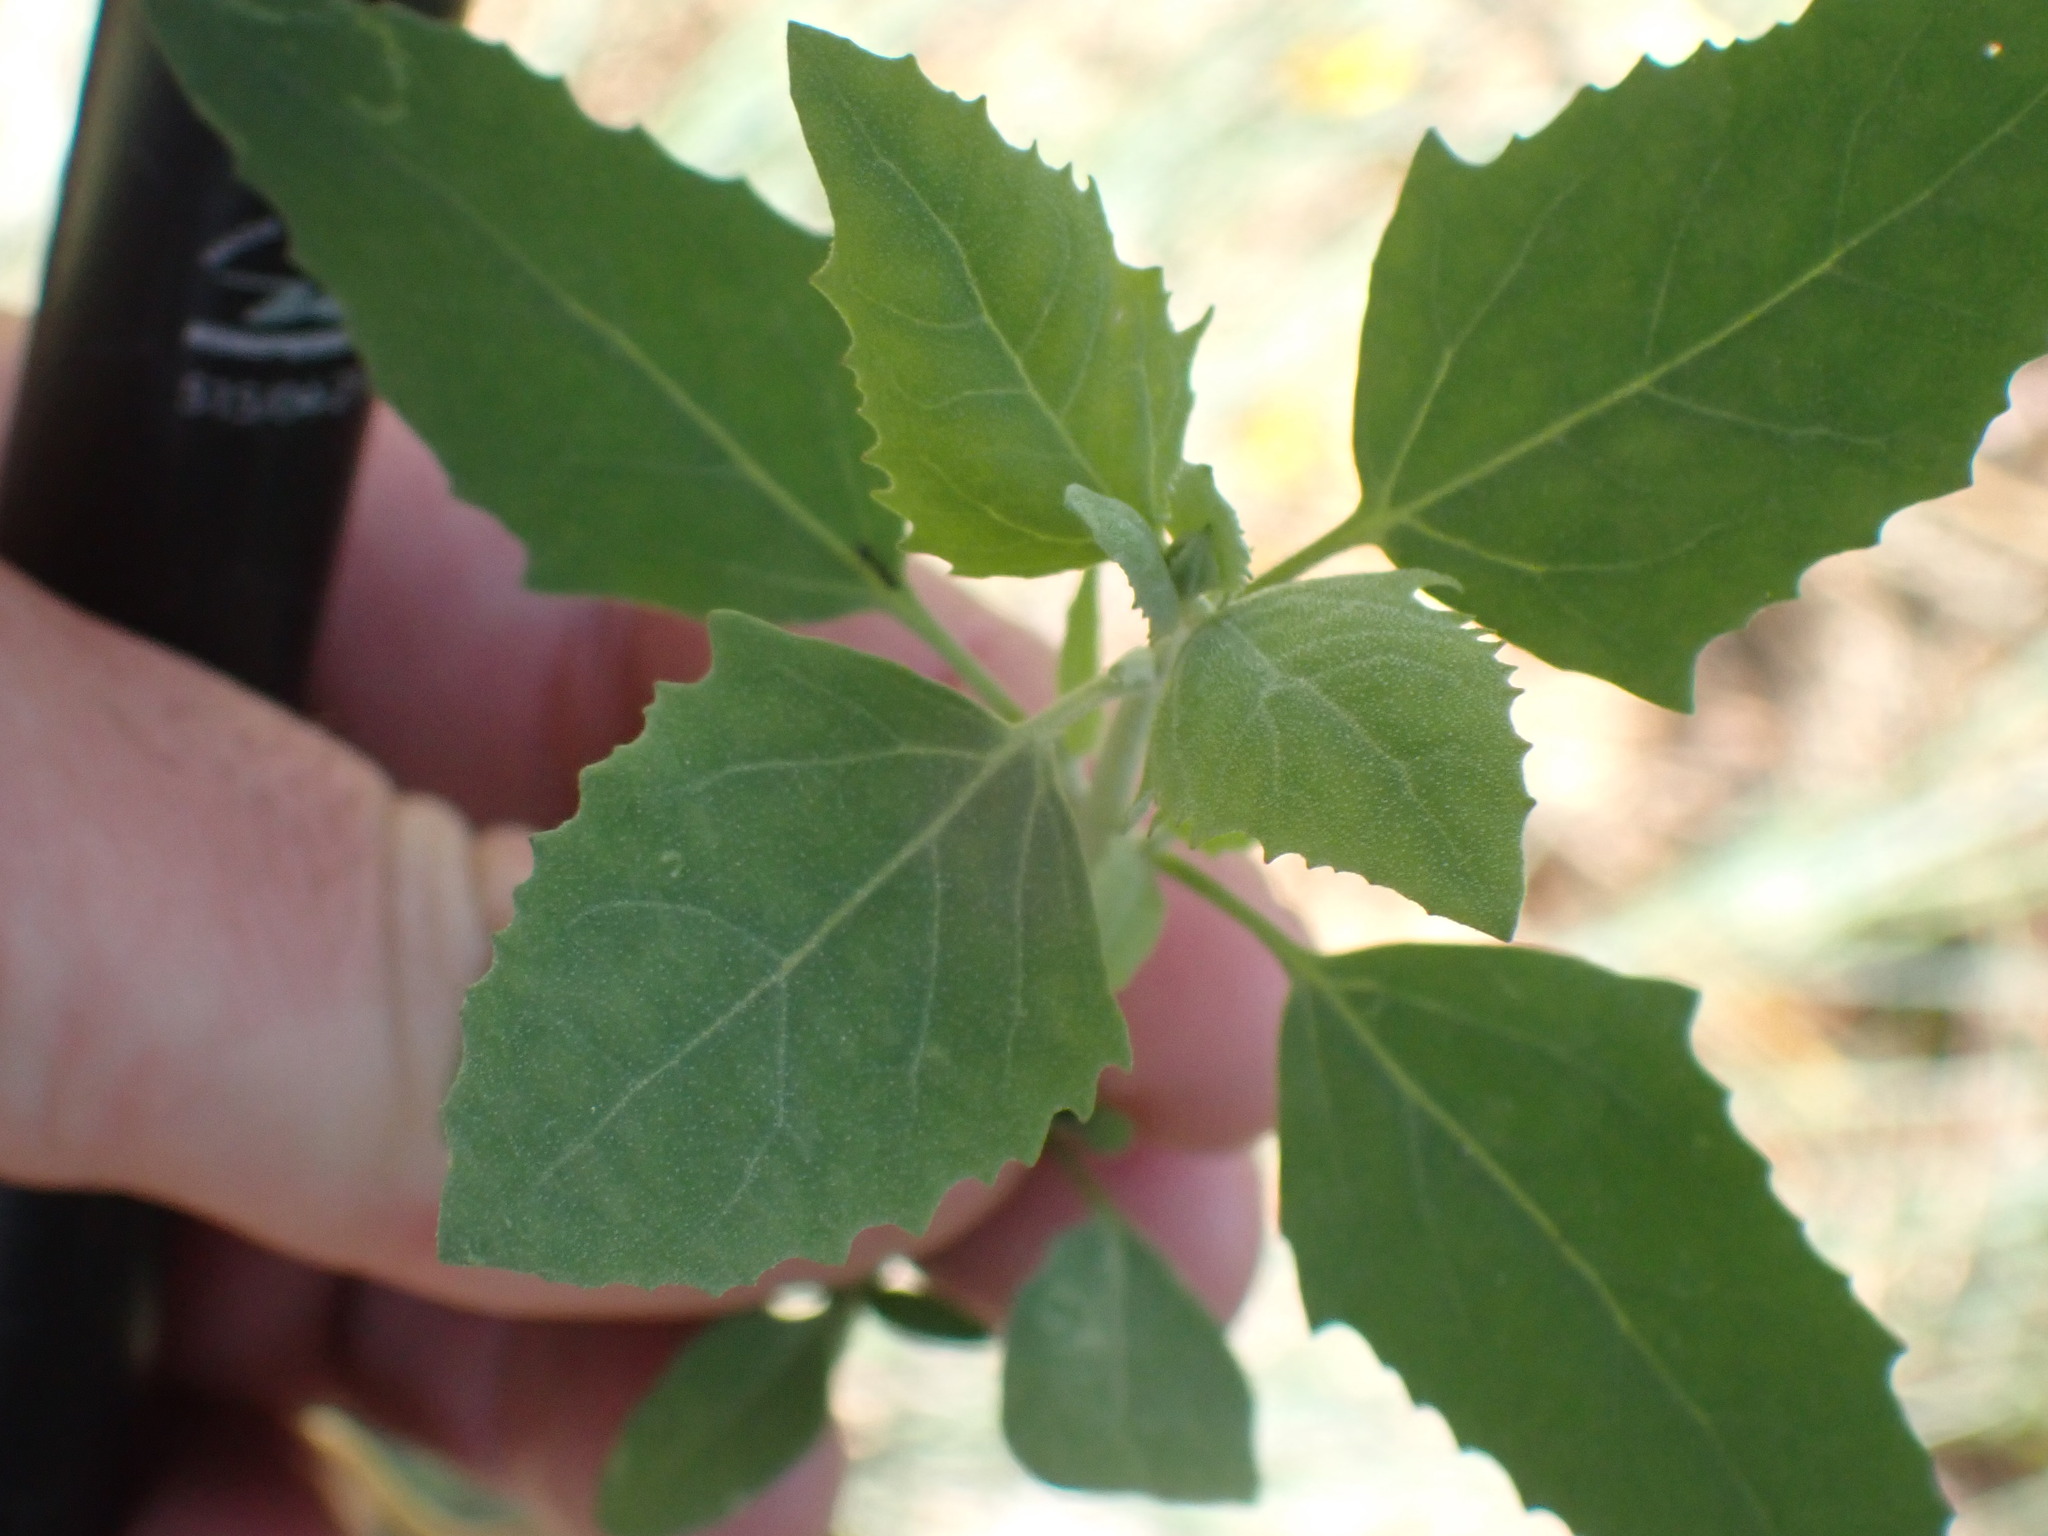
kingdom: Plantae
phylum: Tracheophyta
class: Magnoliopsida
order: Caryophyllales
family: Amaranthaceae
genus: Chenopodium
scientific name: Chenopodium album
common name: Fat-hen
